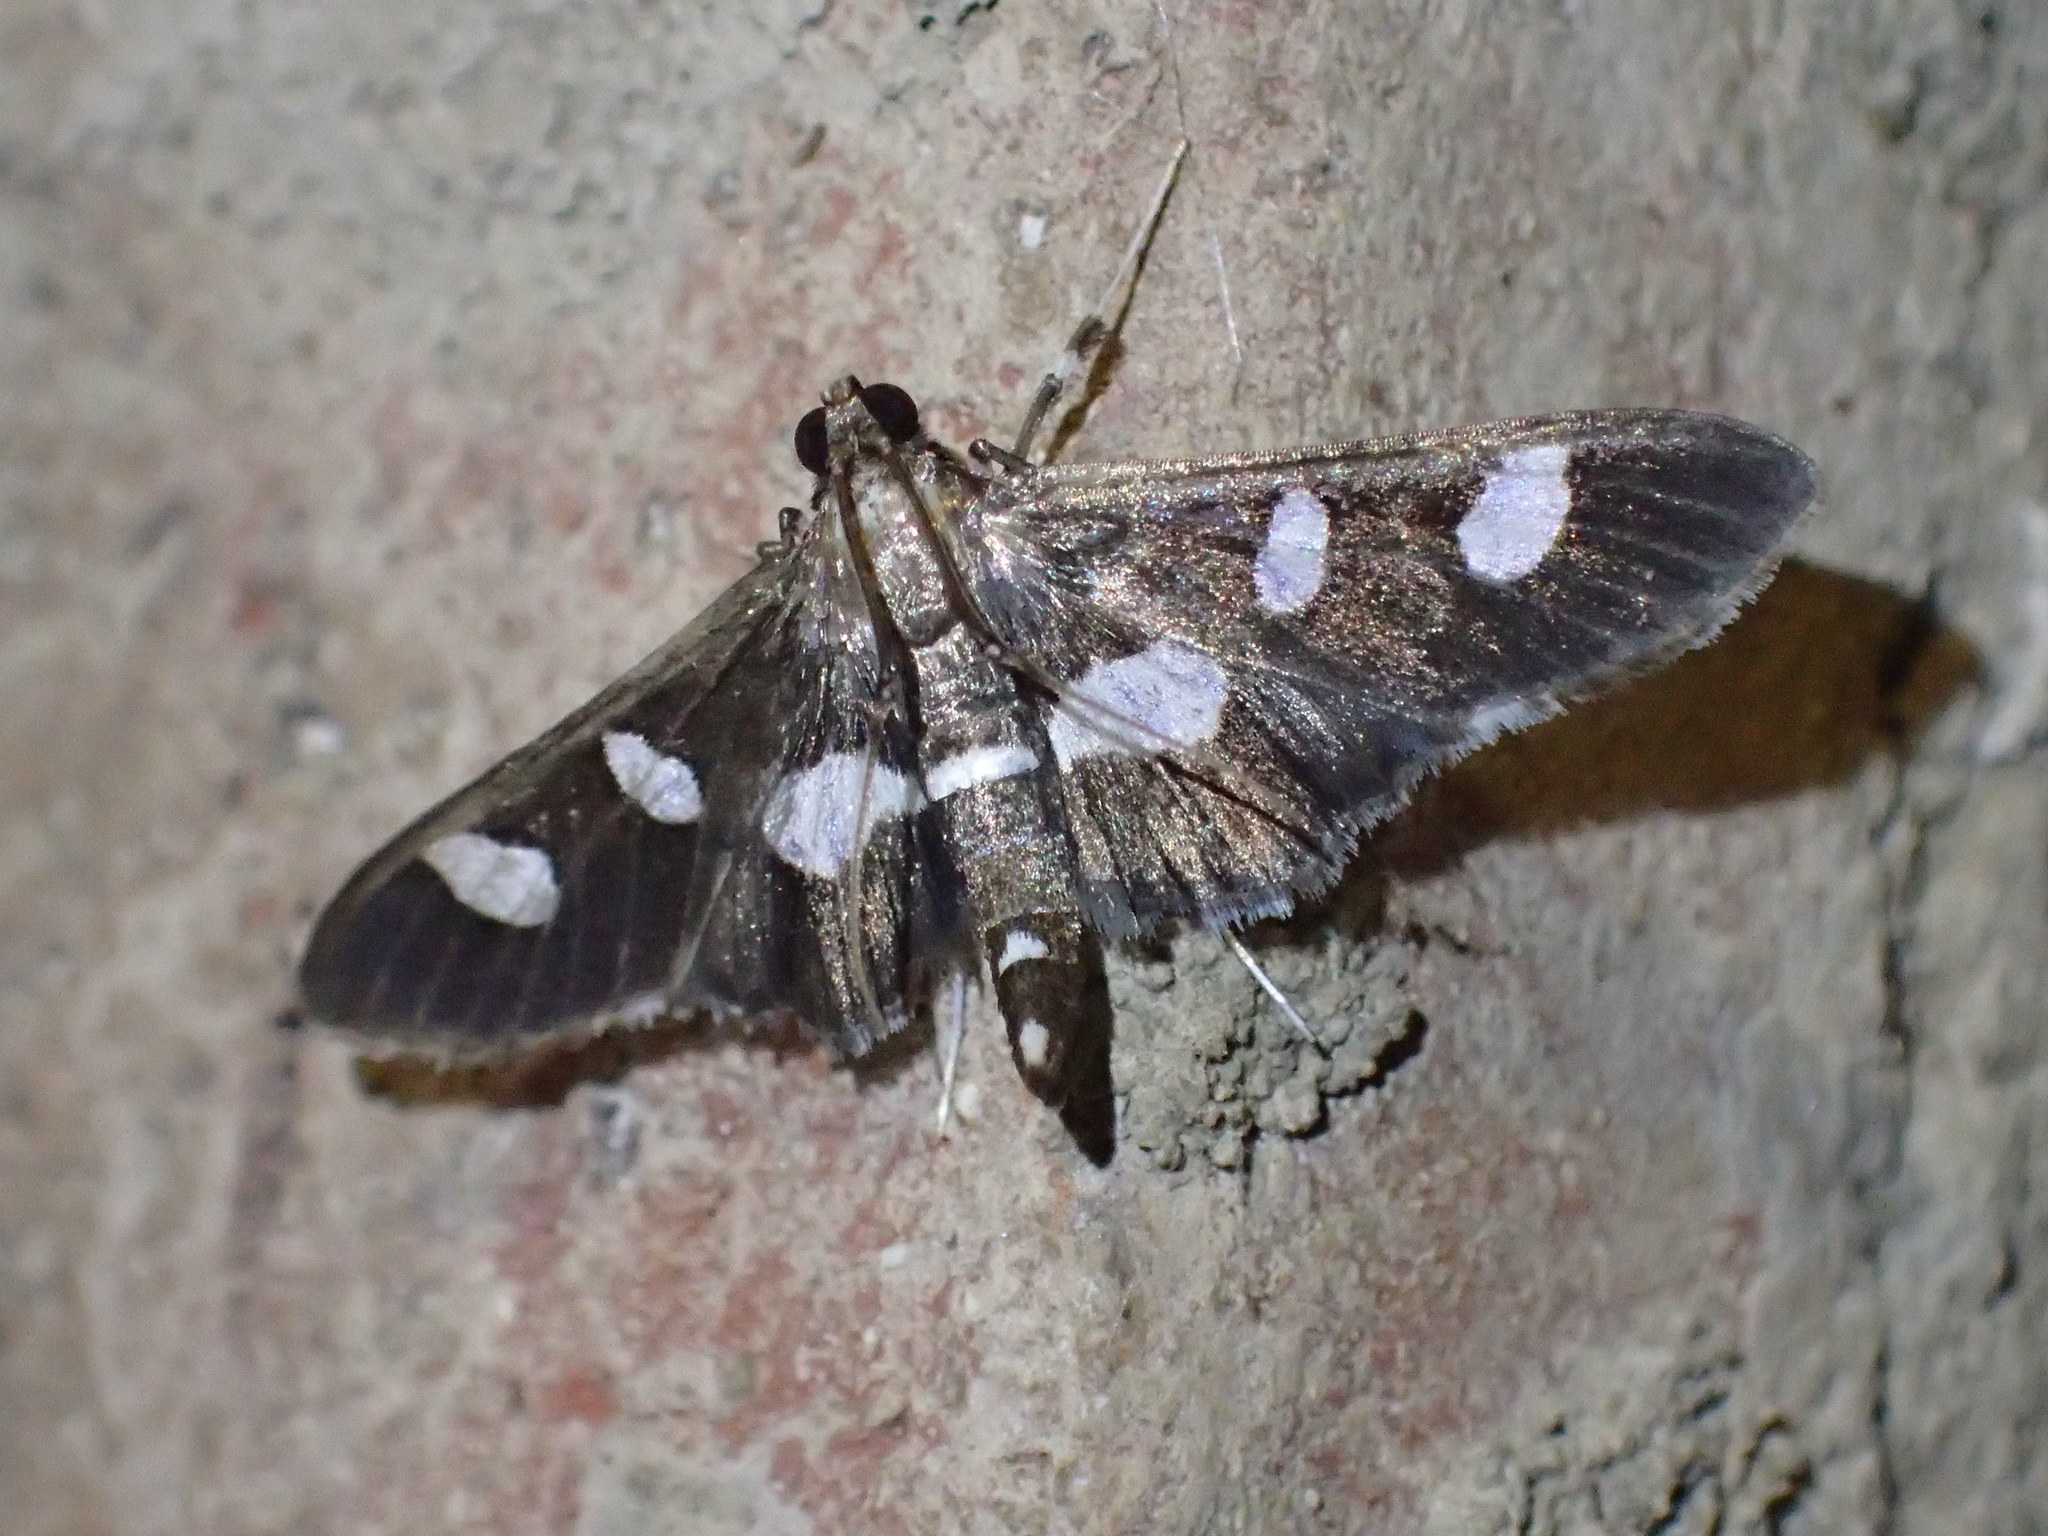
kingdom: Animalia
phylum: Arthropoda
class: Insecta
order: Lepidoptera
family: Crambidae
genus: Desmia
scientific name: Desmia
